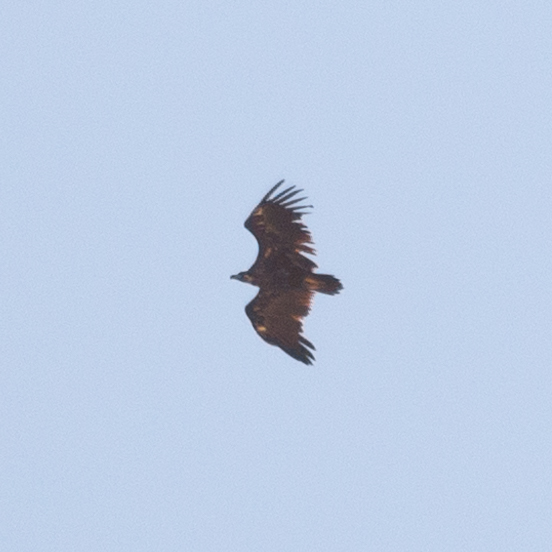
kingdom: Animalia
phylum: Chordata
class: Aves
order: Accipitriformes
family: Accipitridae
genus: Aegypius
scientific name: Aegypius monachus
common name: Cinereous vulture
